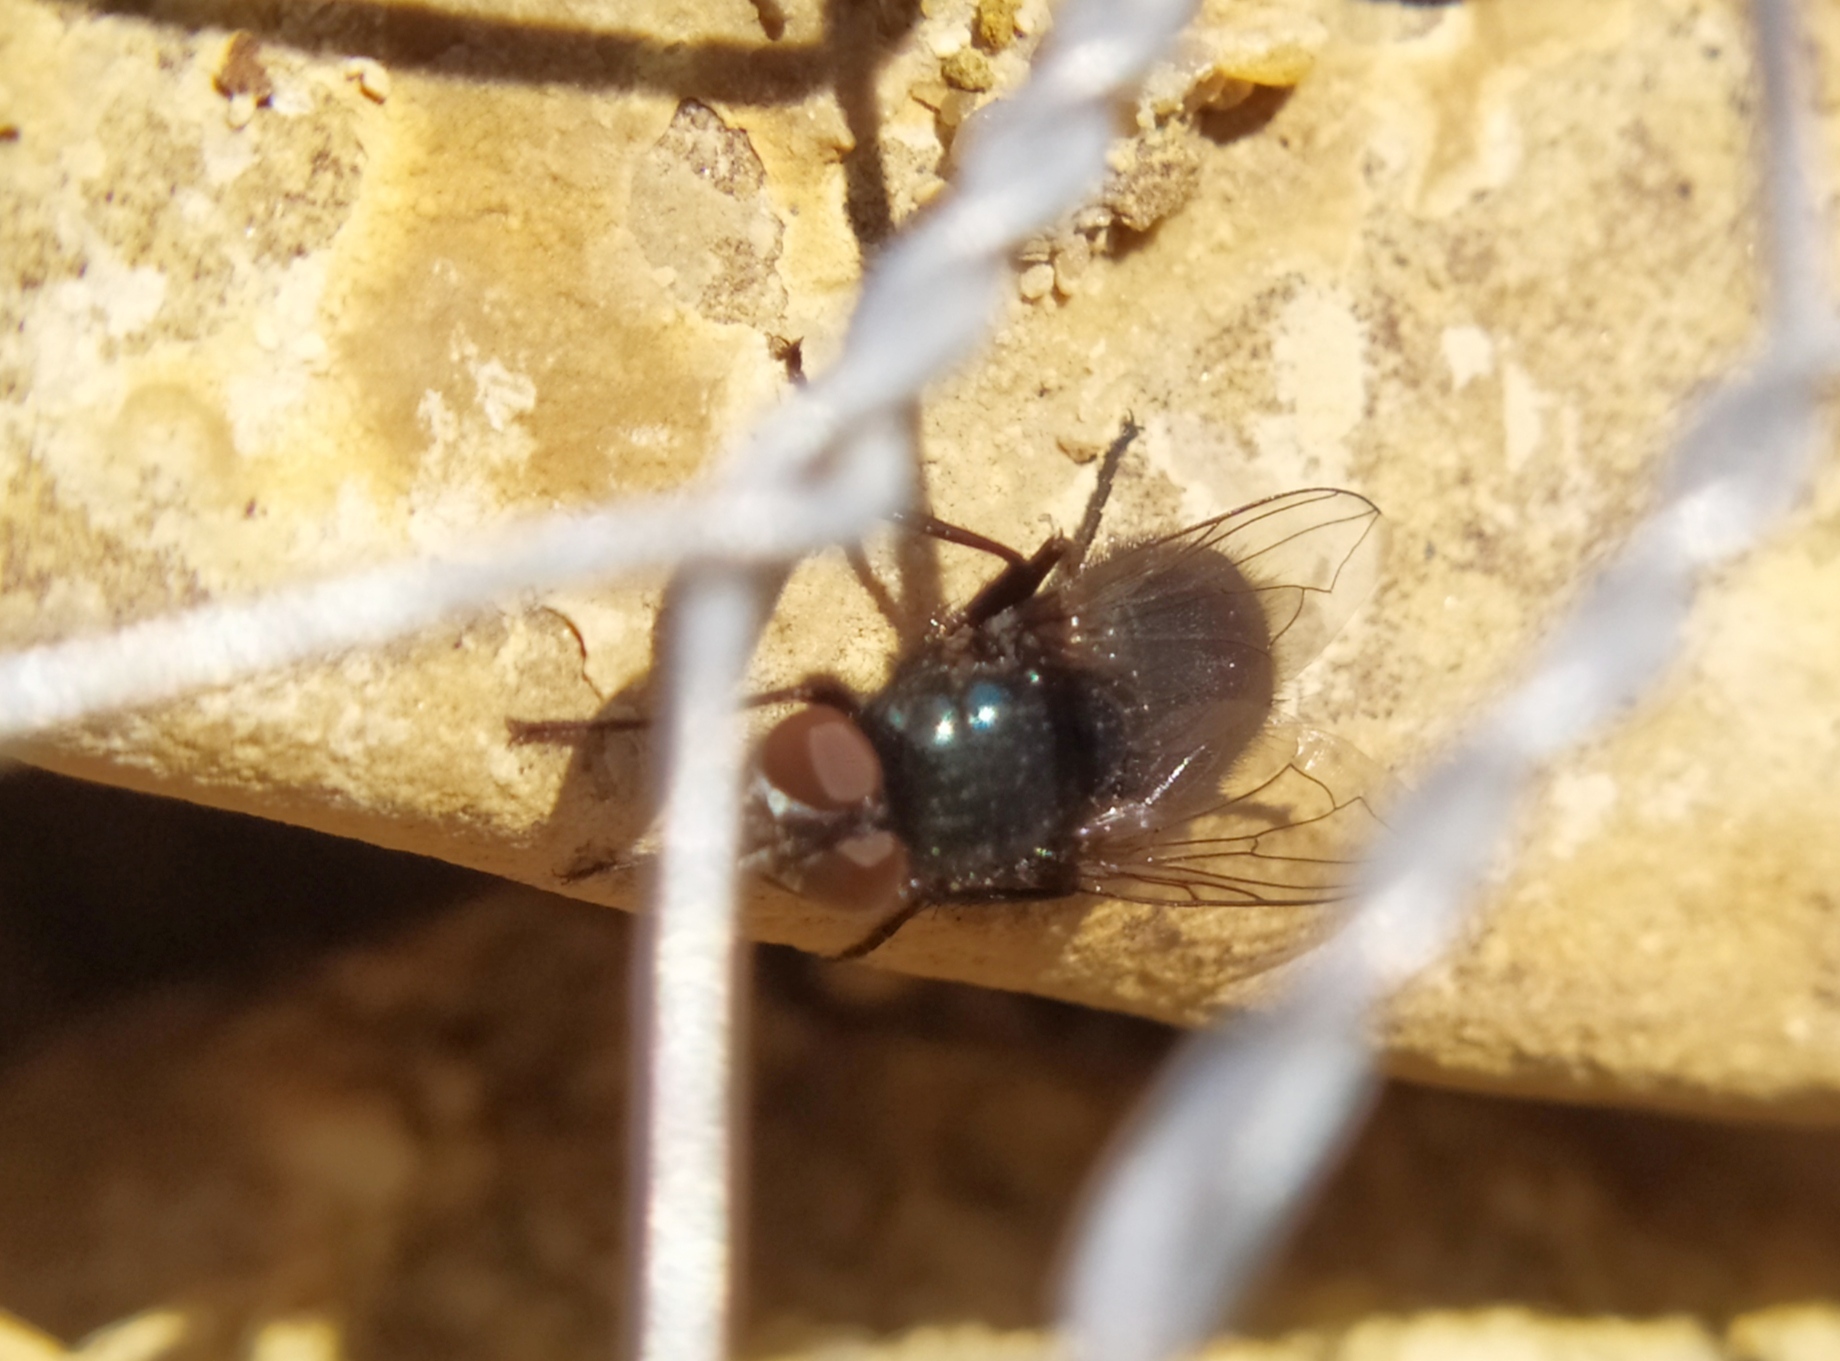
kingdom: Animalia
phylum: Arthropoda
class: Insecta
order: Diptera
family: Calliphoridae
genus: Protophormia
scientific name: Protophormia terraenovae
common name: Blackbottle
